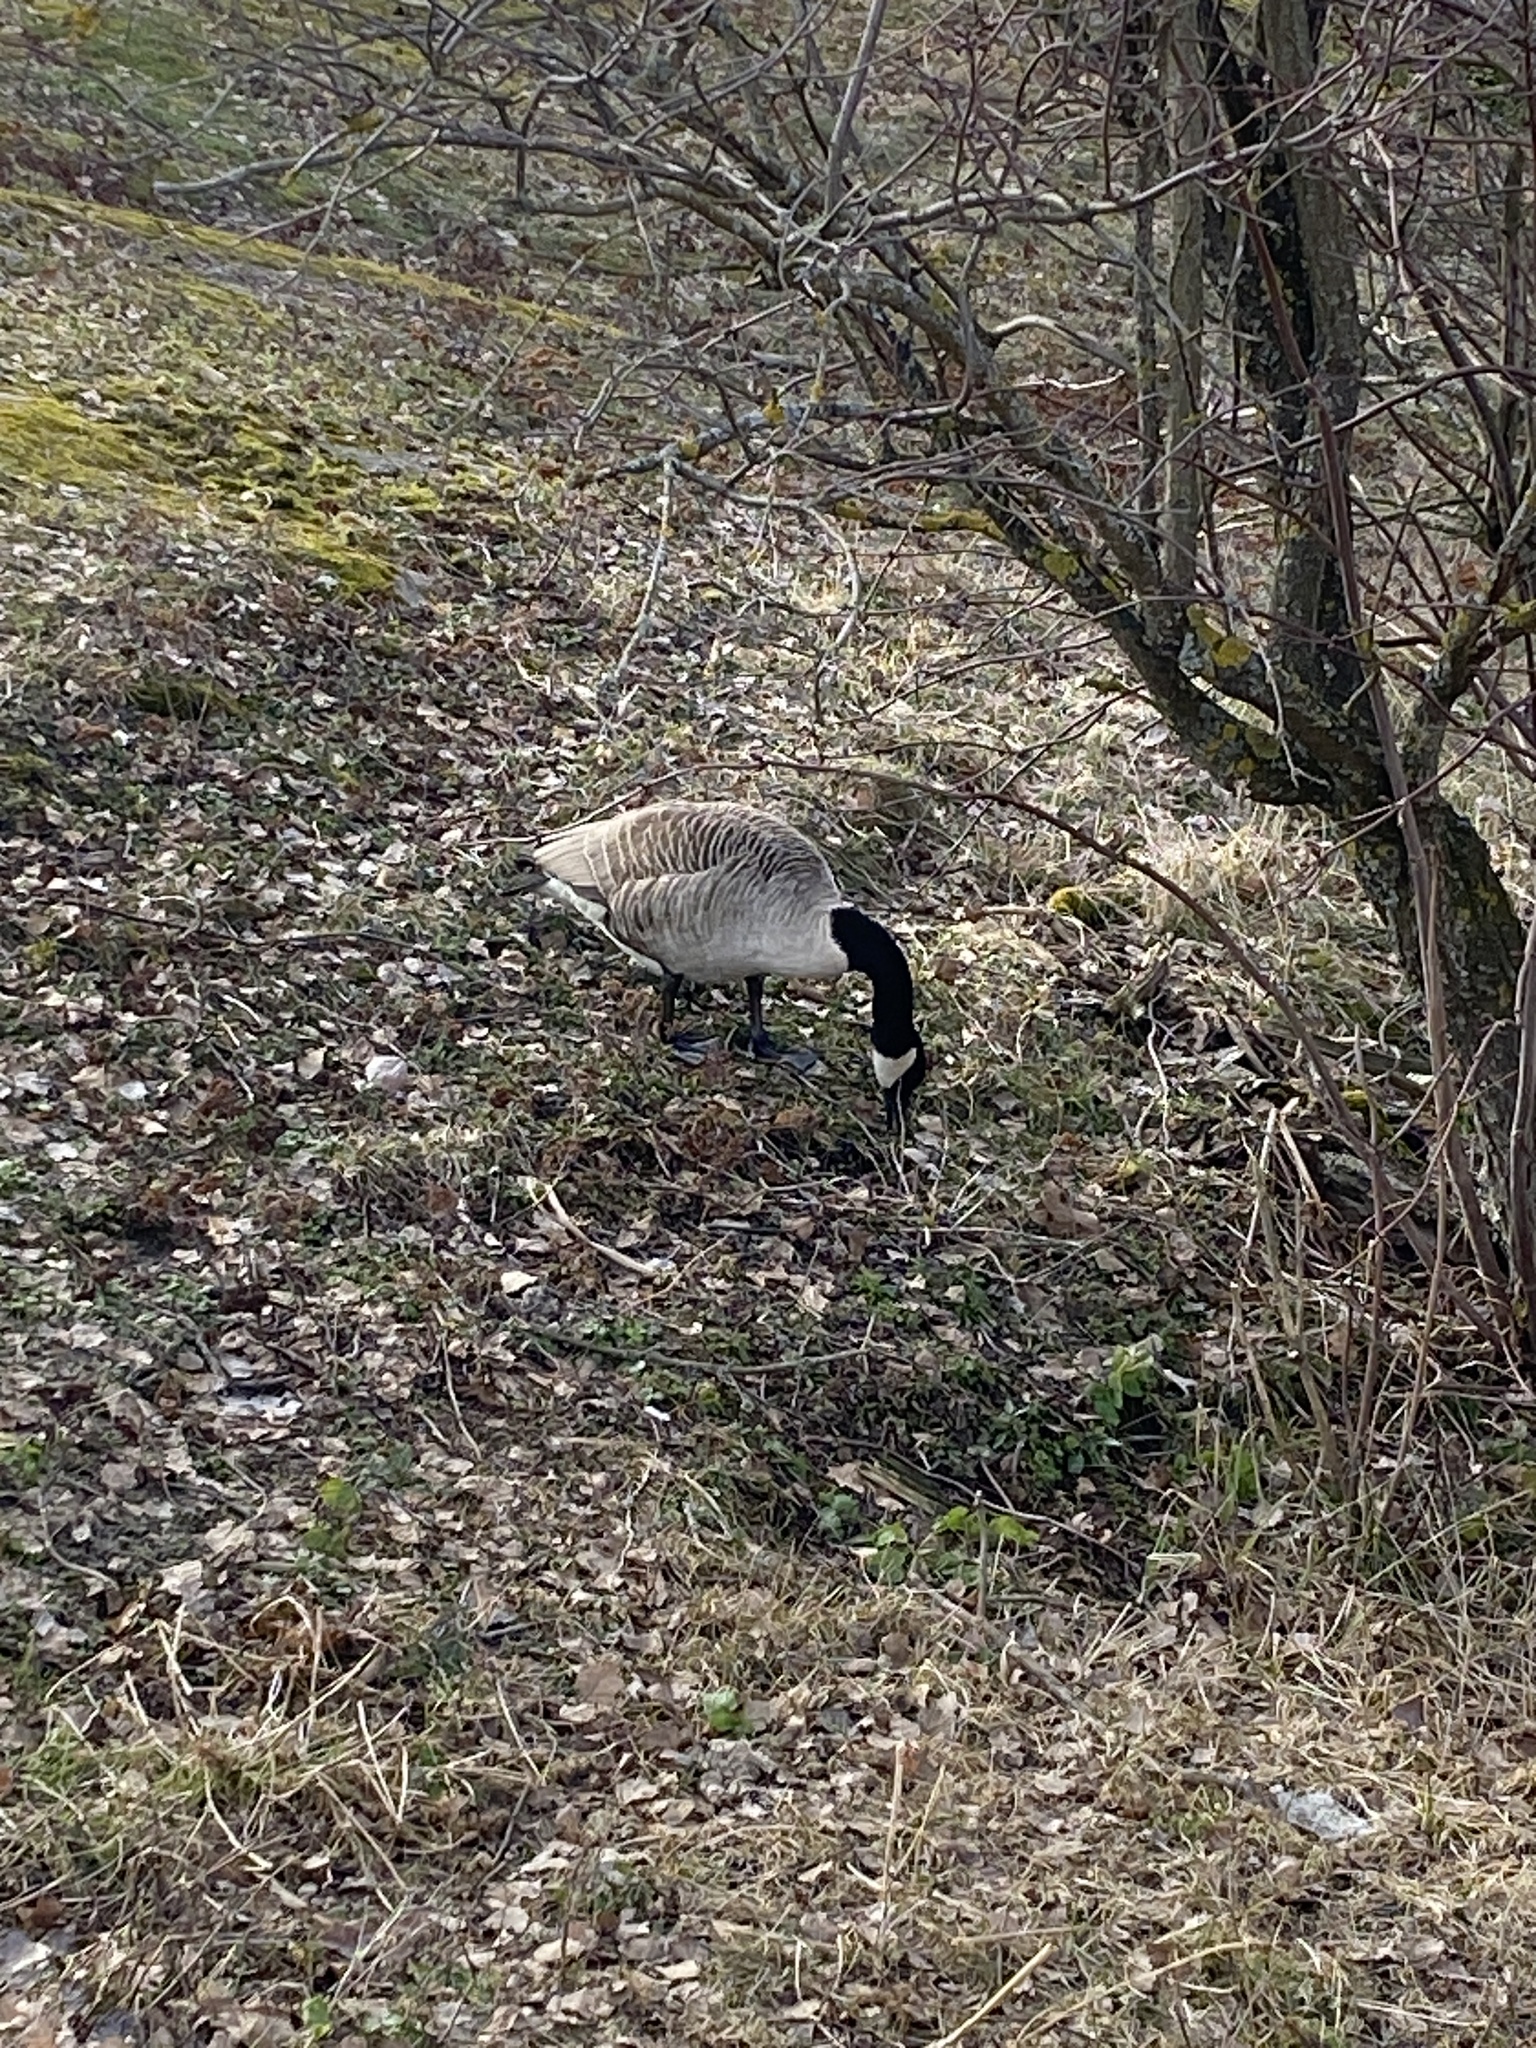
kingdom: Animalia
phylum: Chordata
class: Aves
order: Anseriformes
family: Anatidae
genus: Branta
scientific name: Branta canadensis
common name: Canada goose
